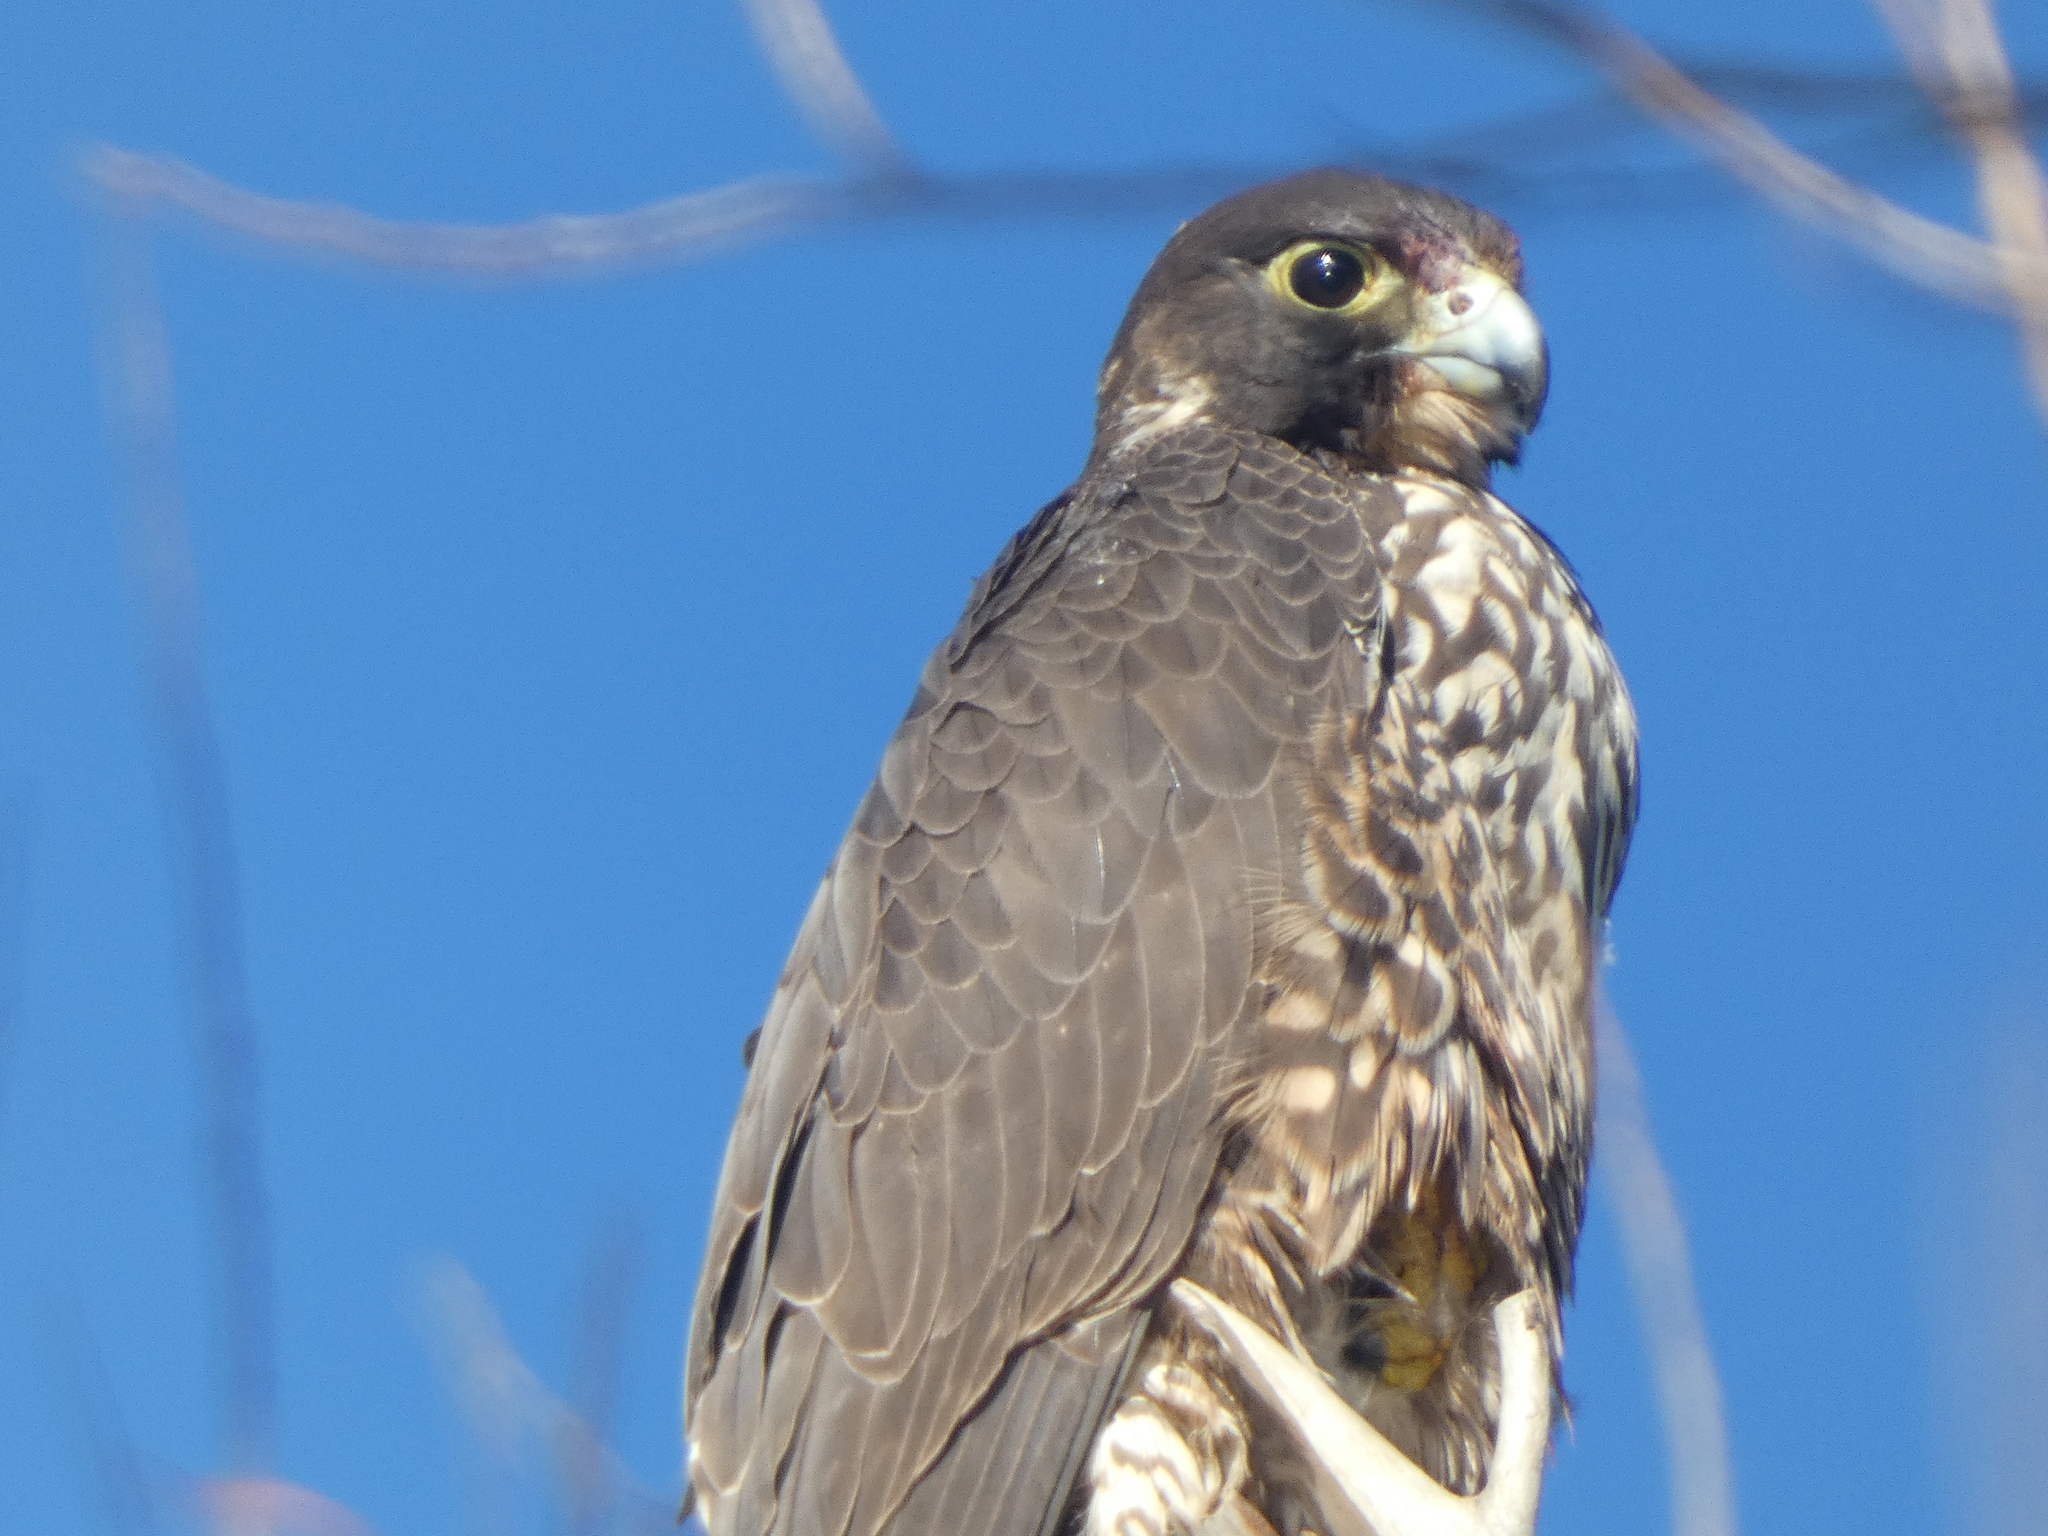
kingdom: Animalia
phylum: Chordata
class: Aves
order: Falconiformes
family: Falconidae
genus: Falco
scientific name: Falco peregrinus
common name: Peregrine falcon
